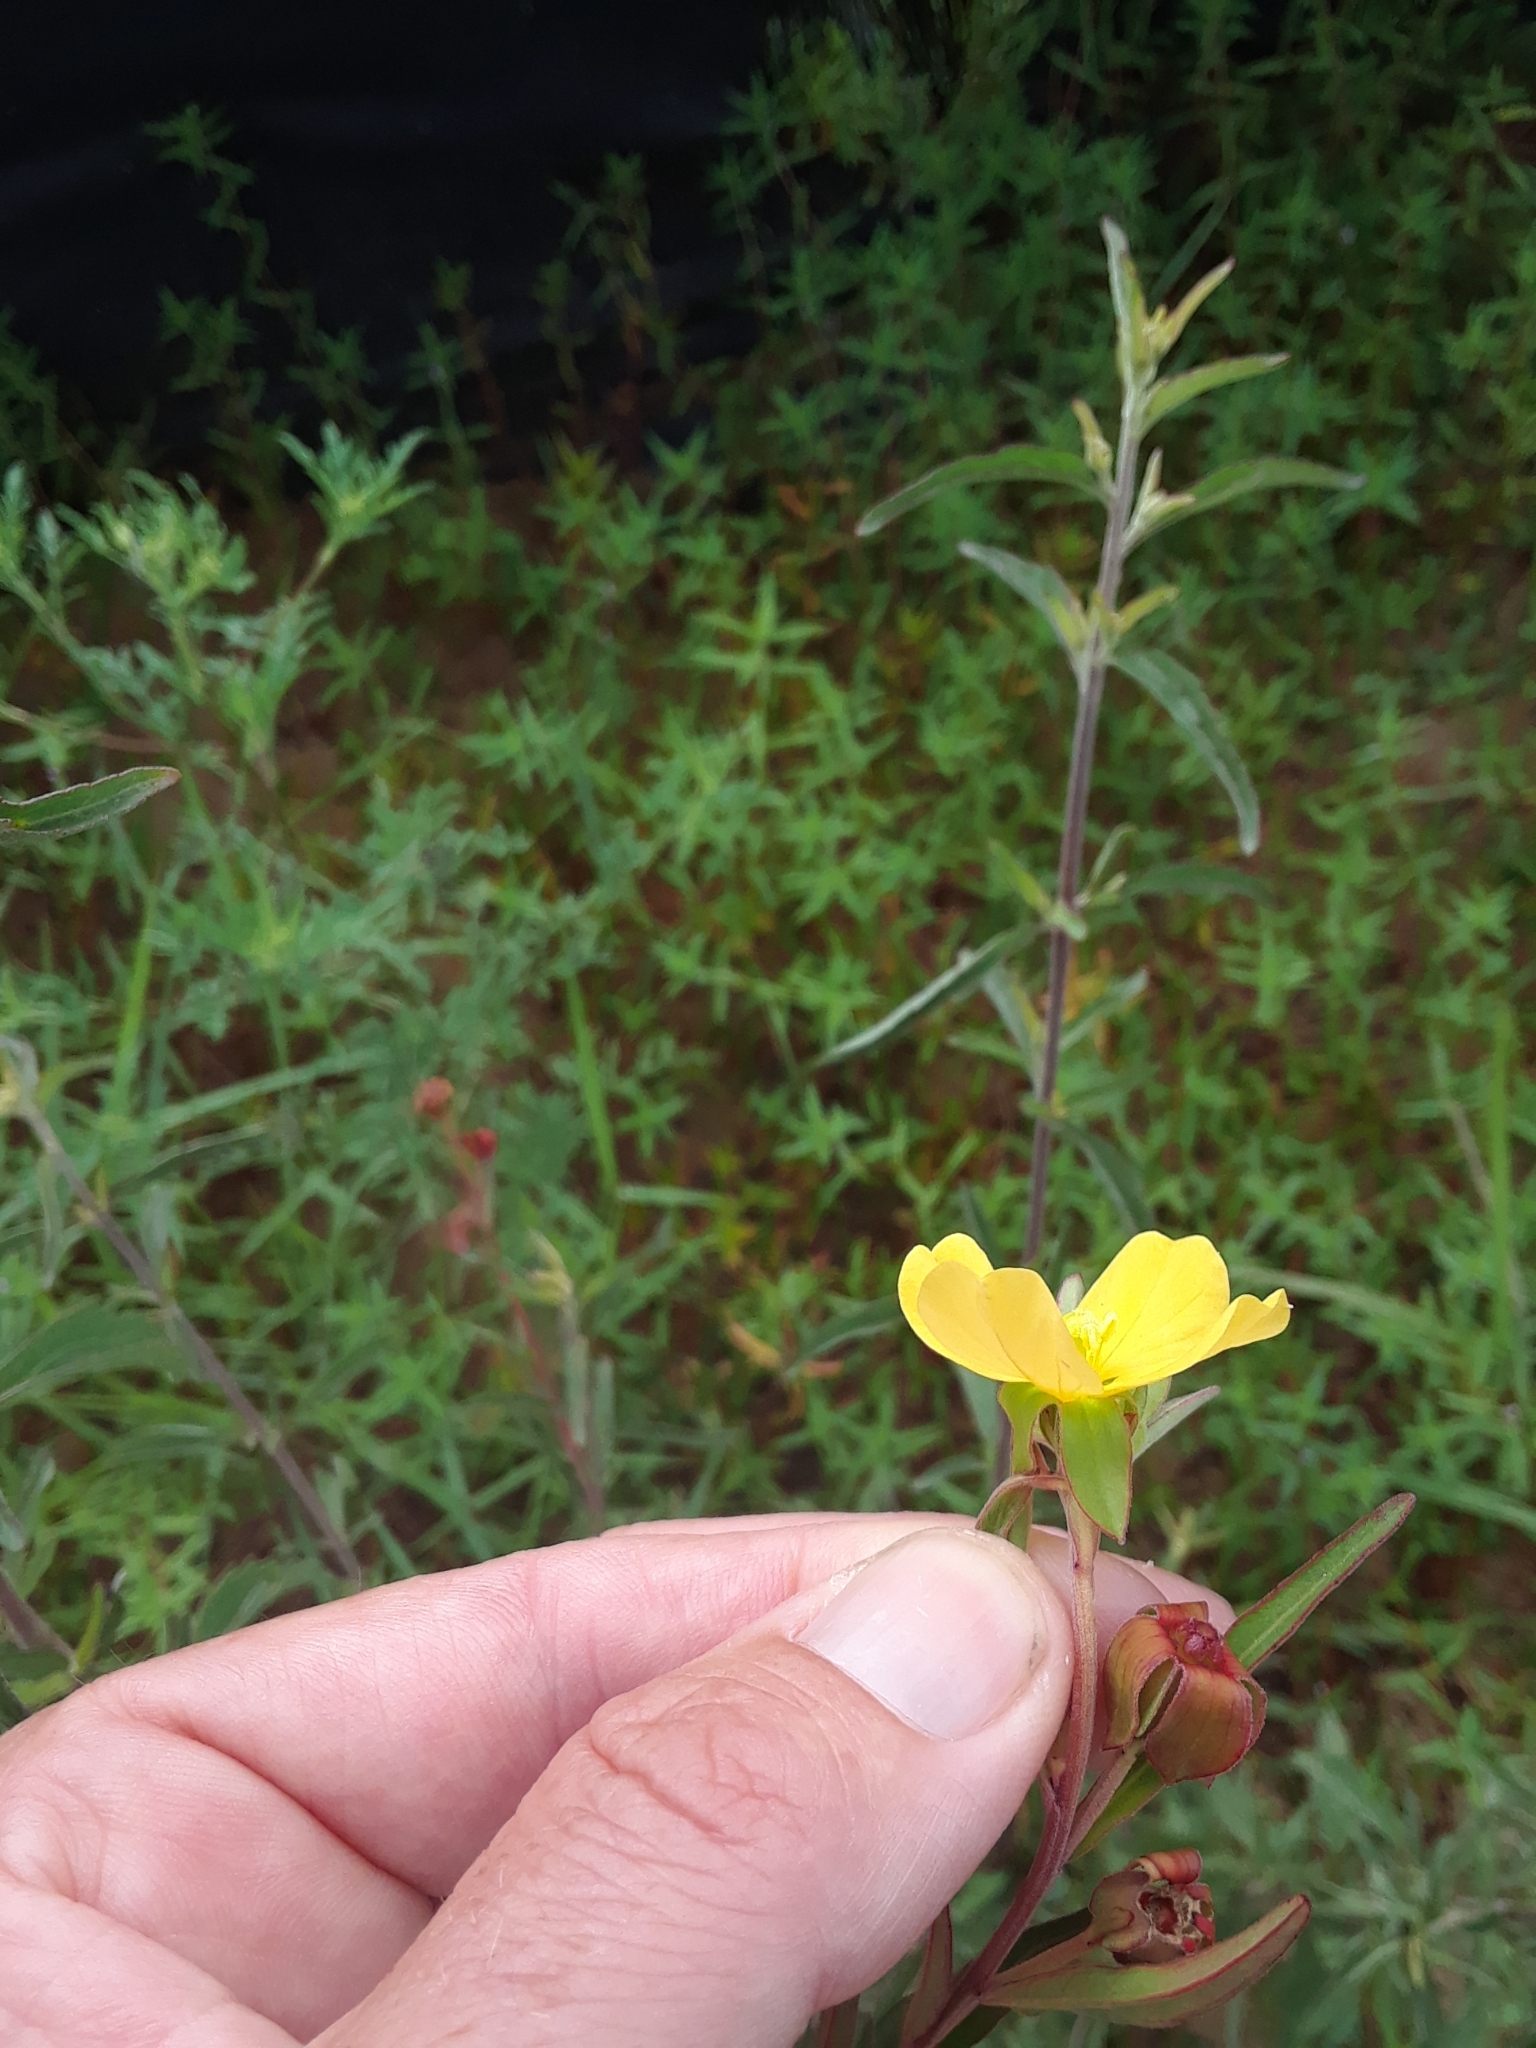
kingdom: Plantae
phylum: Tracheophyta
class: Magnoliopsida
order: Myrtales
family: Onagraceae
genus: Ludwigia
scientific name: Ludwigia alternifolia
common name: Rattlebox
